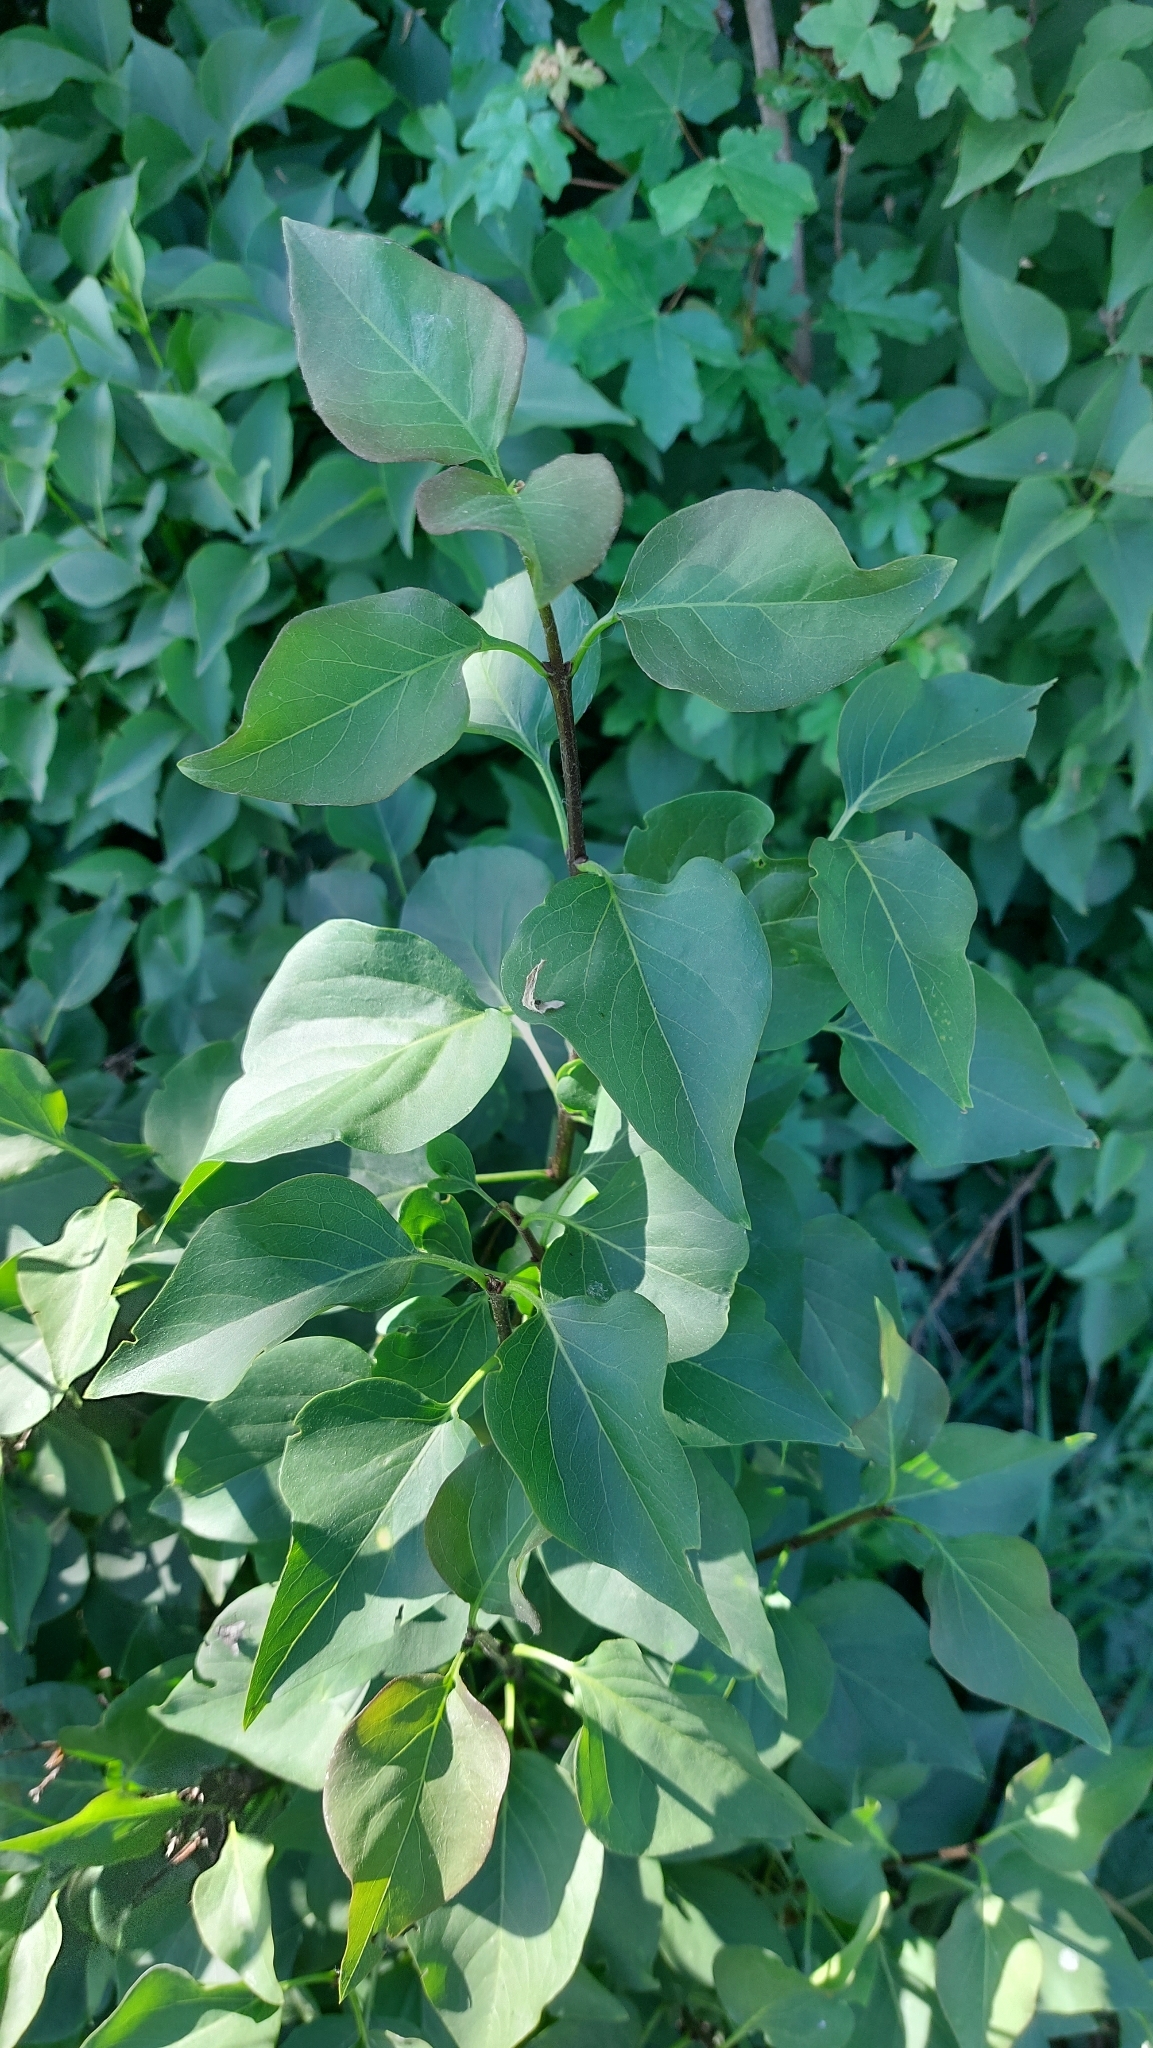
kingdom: Plantae
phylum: Tracheophyta
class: Magnoliopsida
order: Lamiales
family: Oleaceae
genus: Syringa
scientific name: Syringa vulgaris
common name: Common lilac
